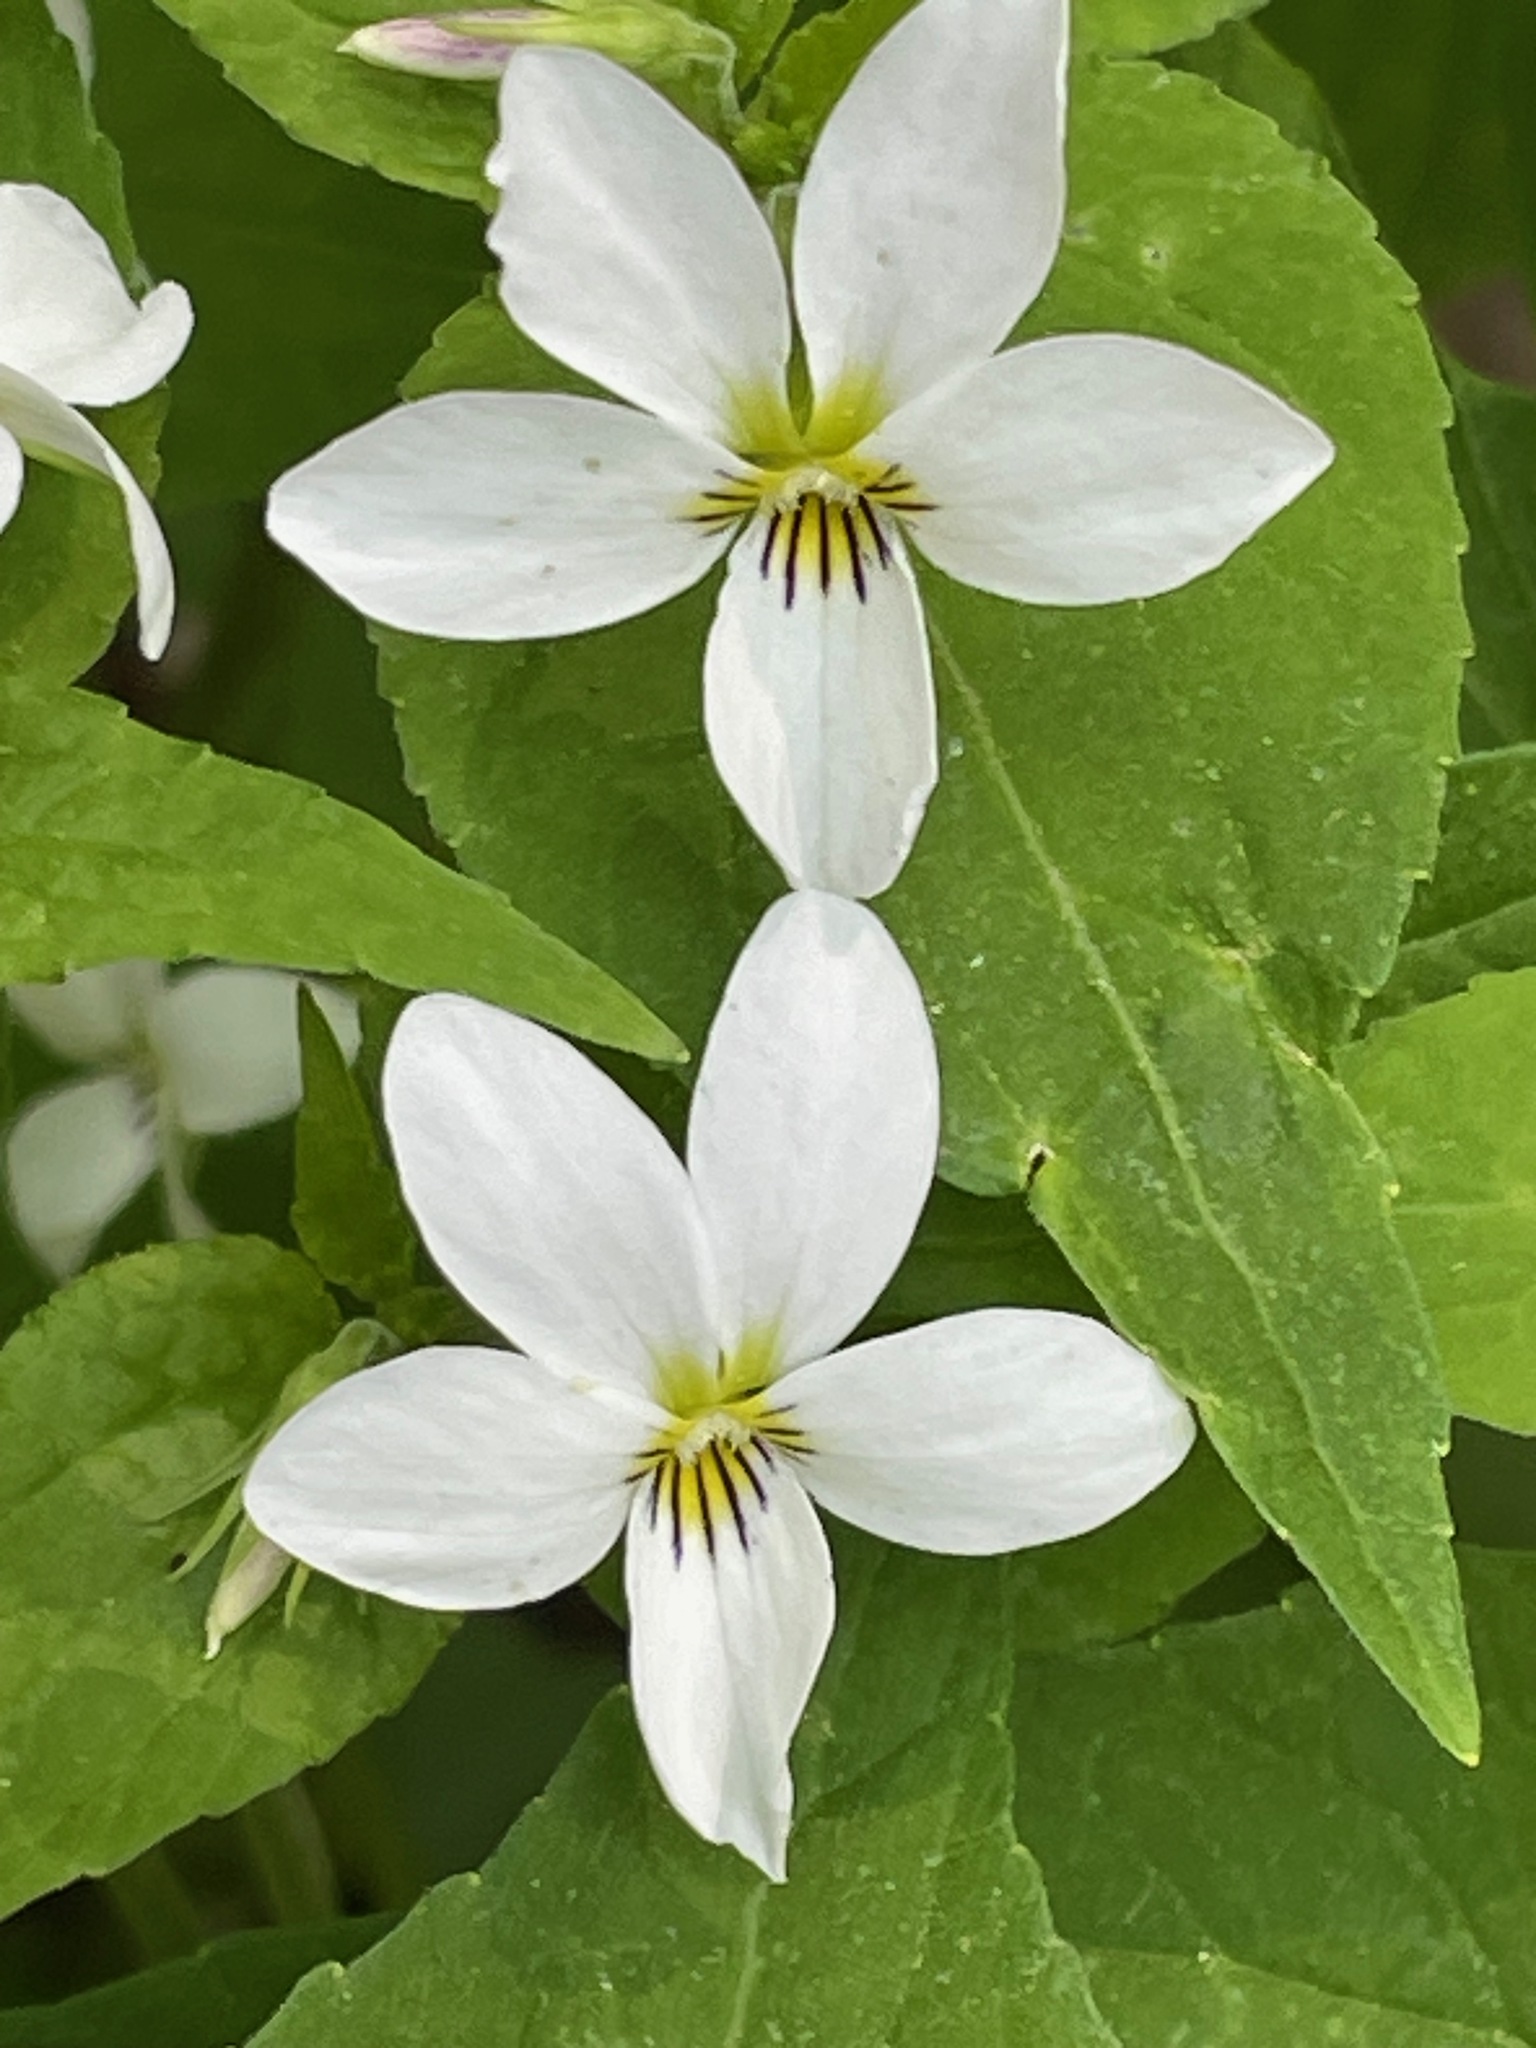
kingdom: Plantae
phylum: Tracheophyta
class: Magnoliopsida
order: Malpighiales
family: Violaceae
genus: Viola
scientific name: Viola canadensis
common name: Canada violet
